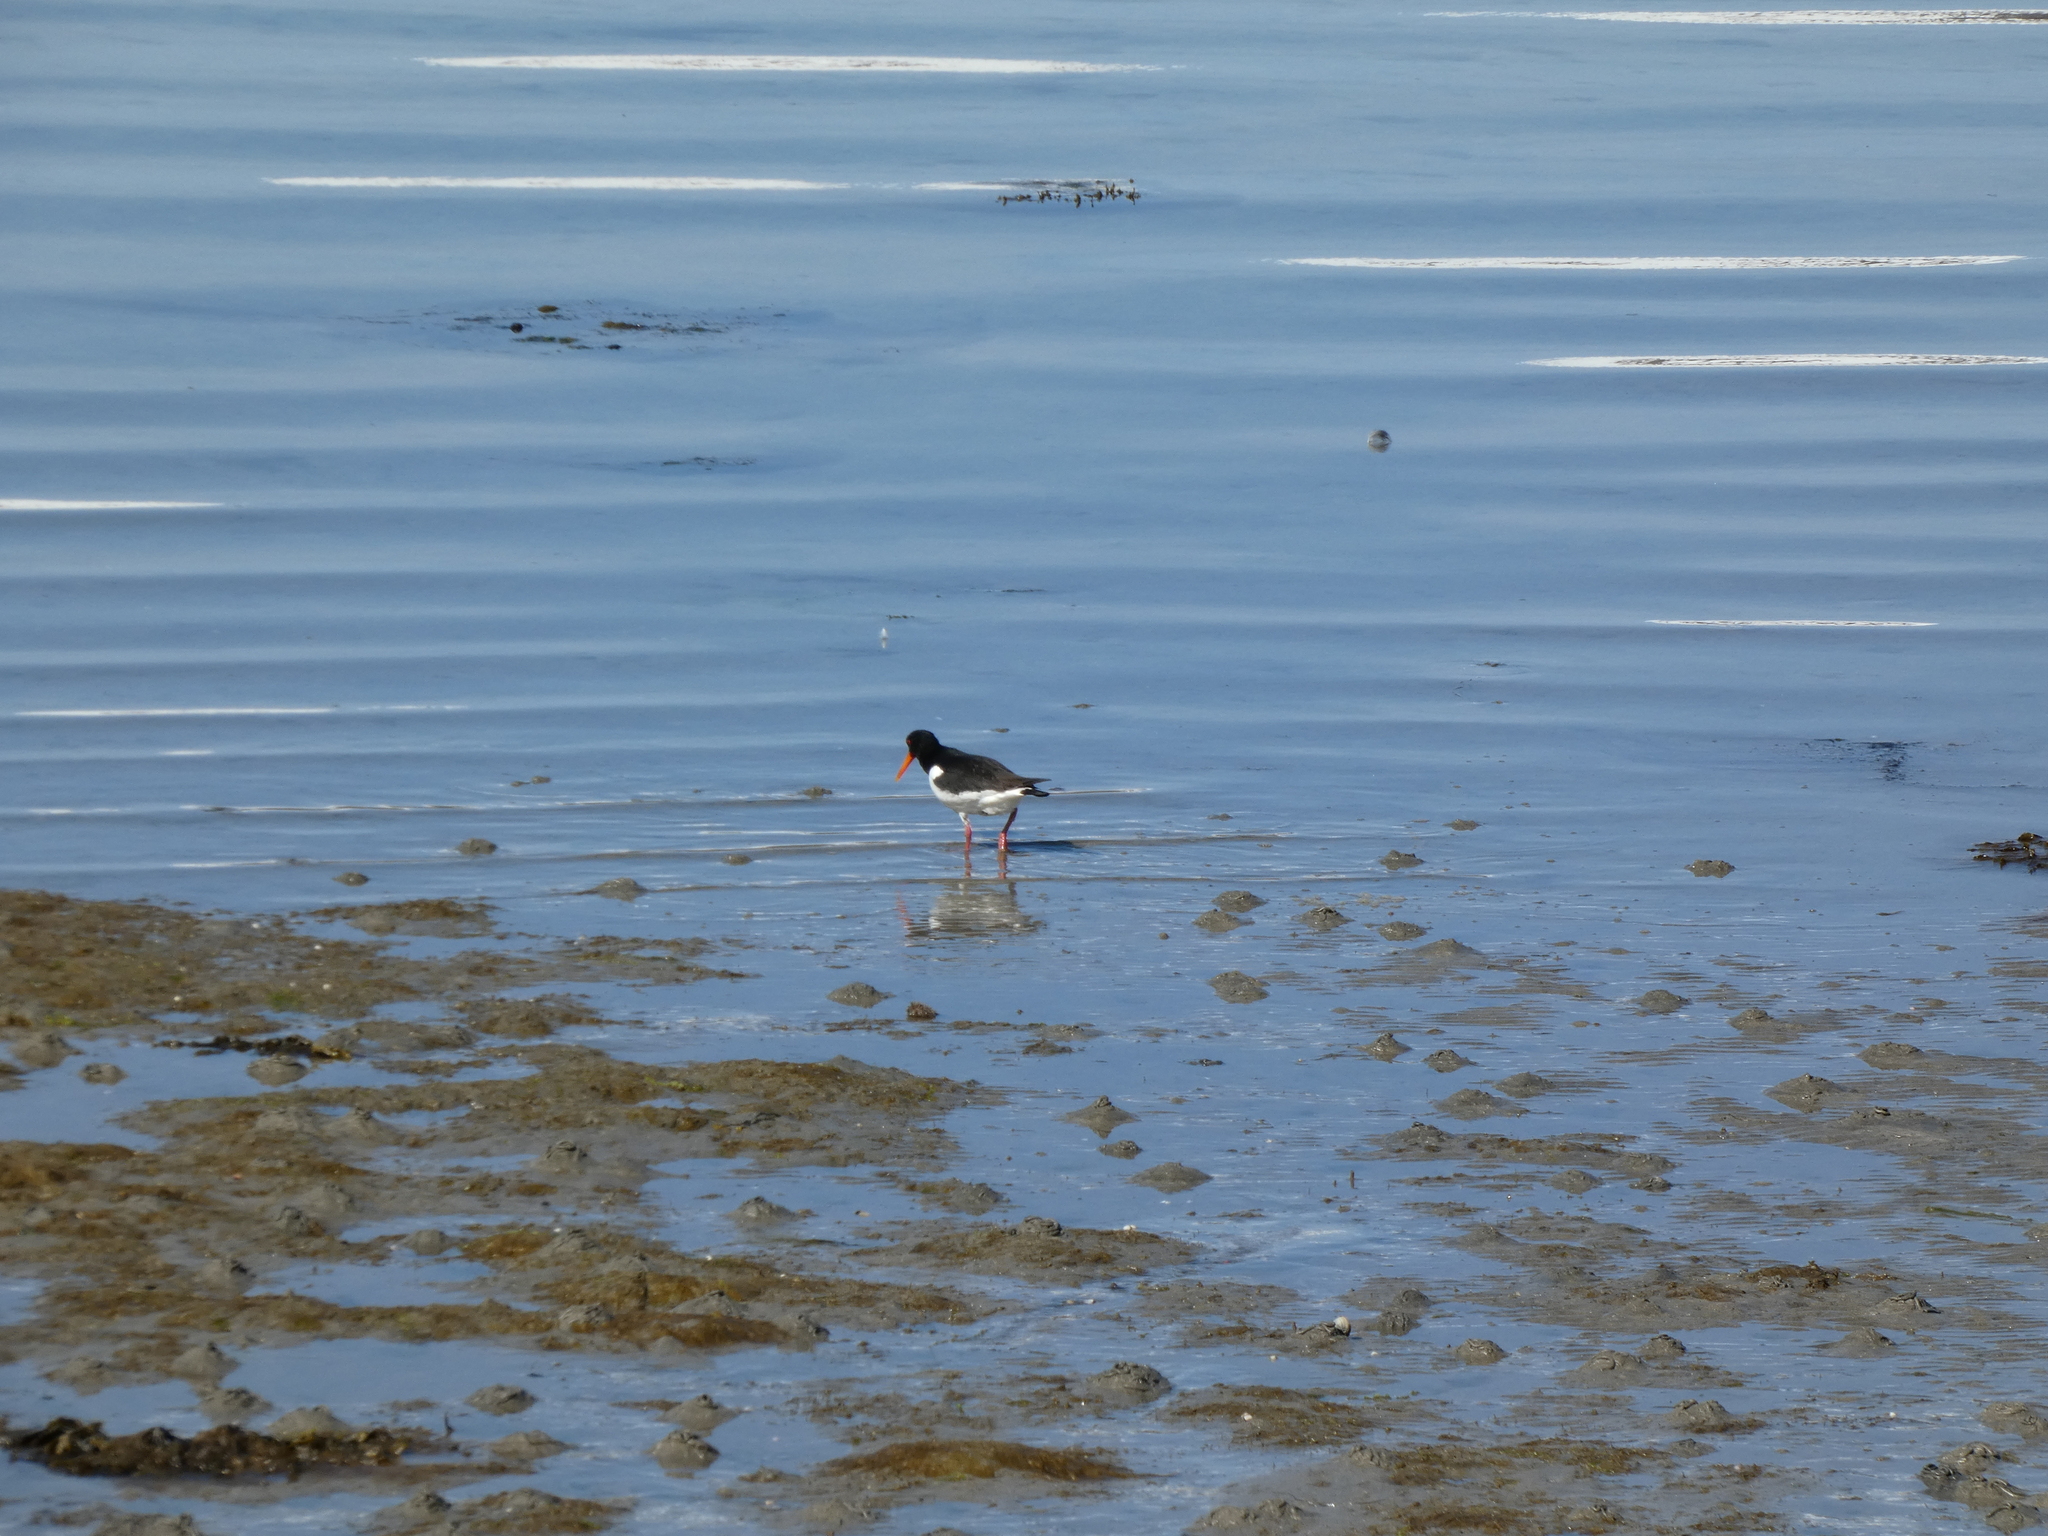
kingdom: Animalia
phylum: Chordata
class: Aves
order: Charadriiformes
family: Haematopodidae
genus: Haematopus
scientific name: Haematopus ostralegus
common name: Eurasian oystercatcher
